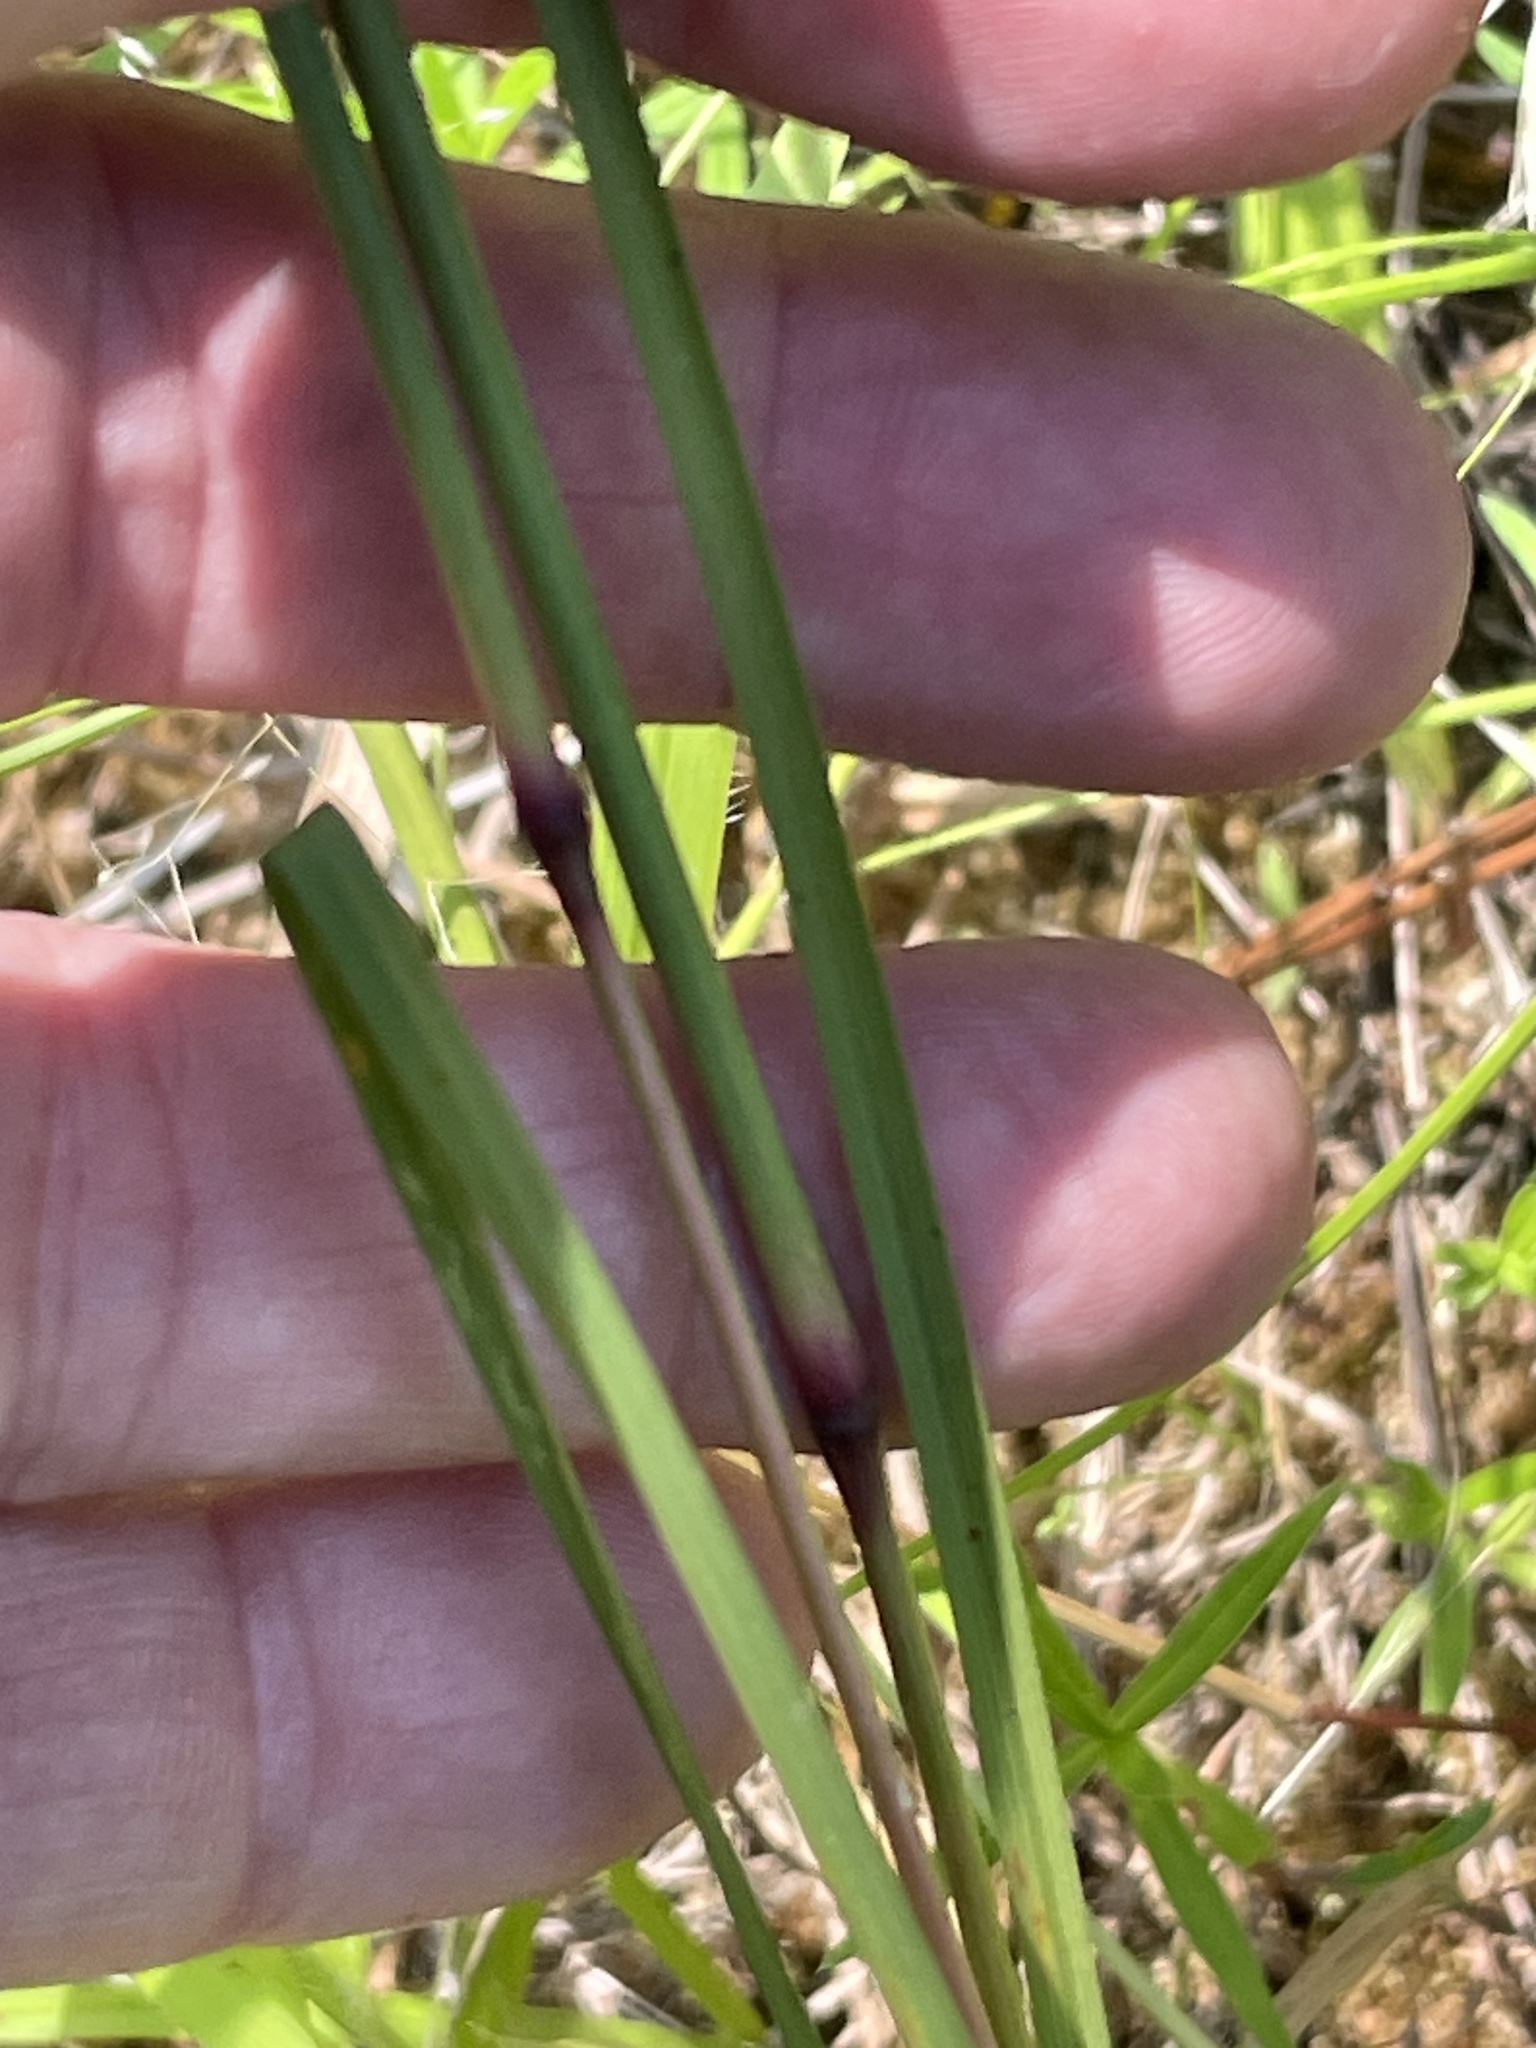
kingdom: Plantae
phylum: Tracheophyta
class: Liliopsida
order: Poales
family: Poaceae
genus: Rottboellia
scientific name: Rottboellia campestris
